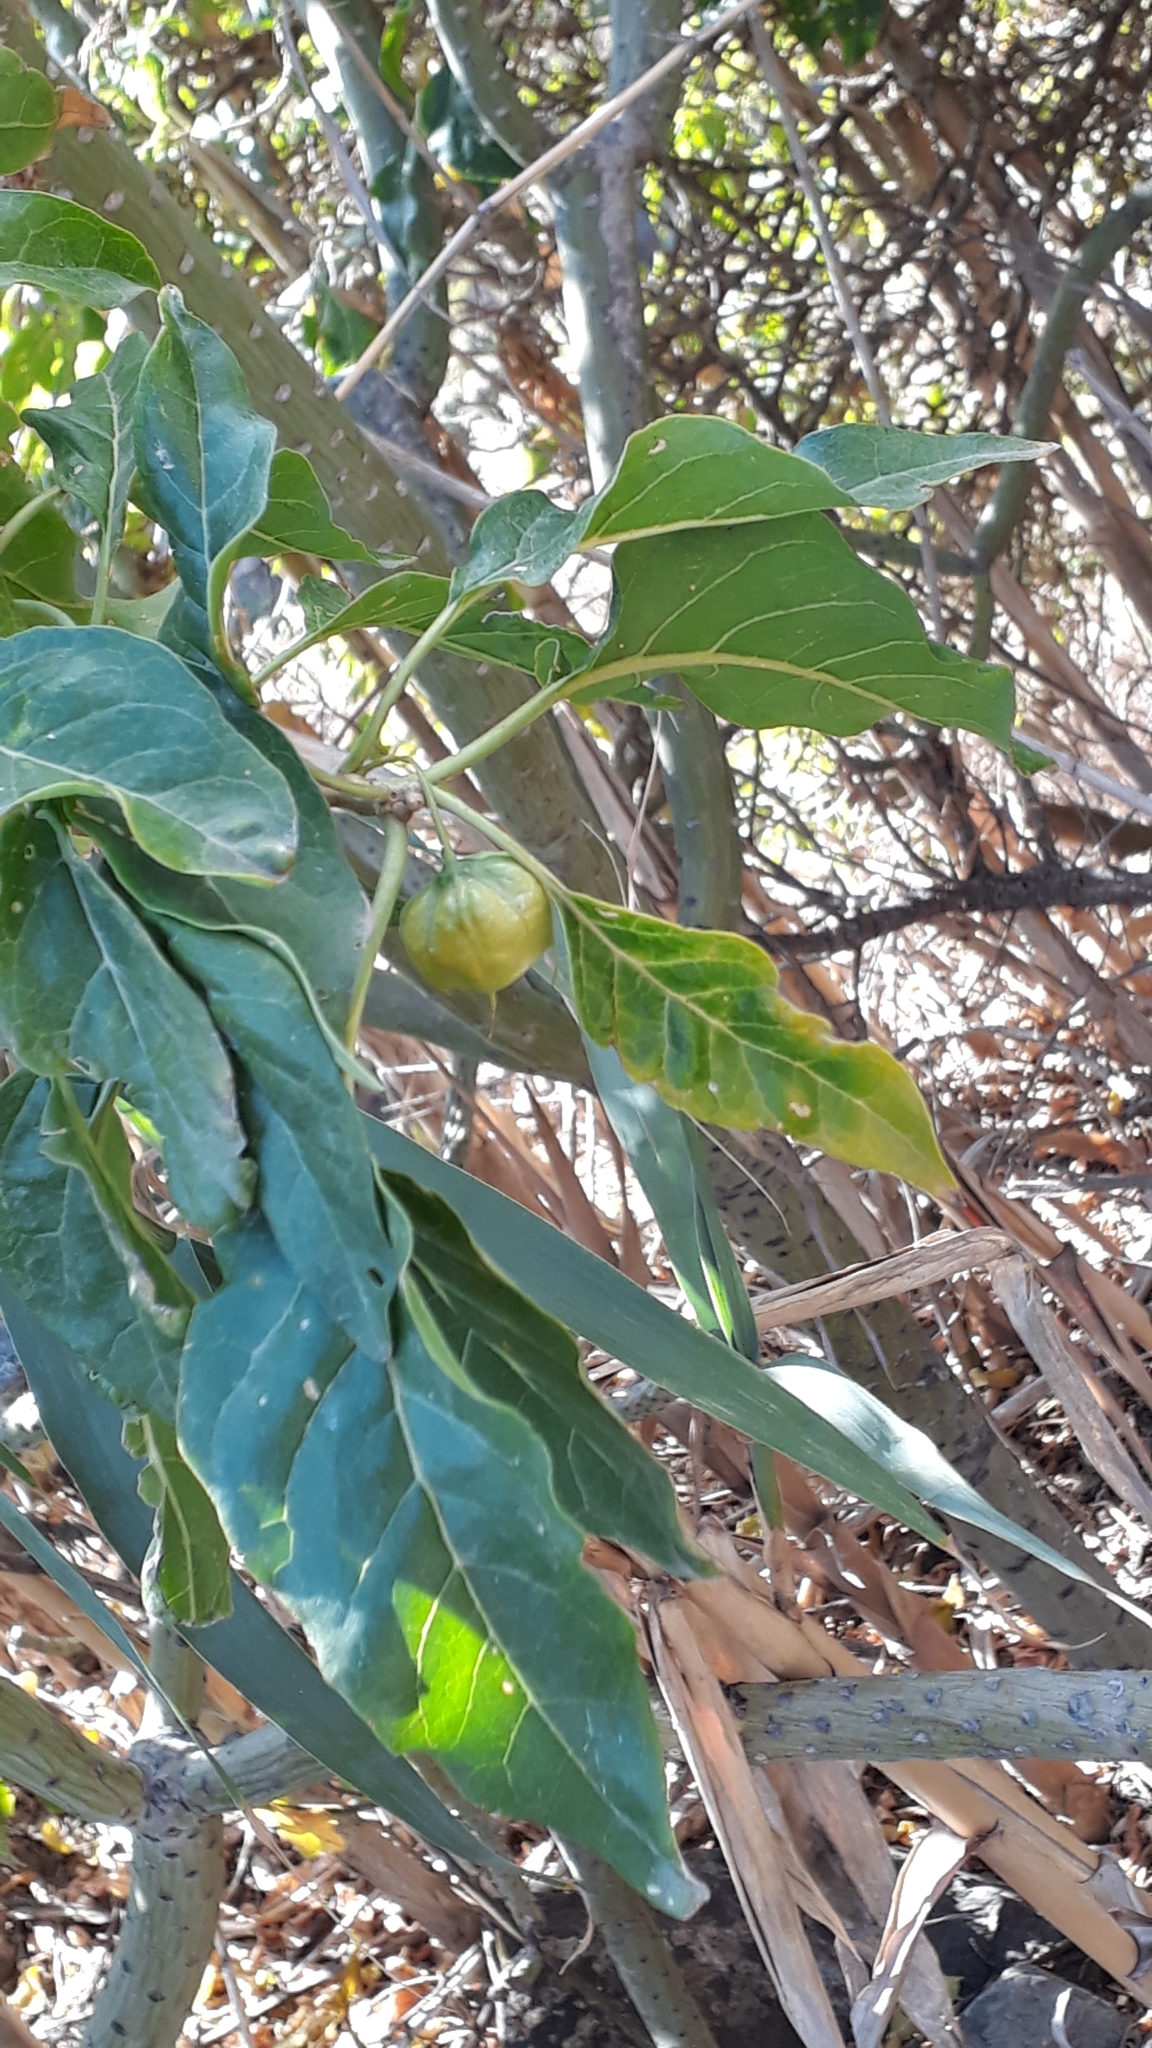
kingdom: Plantae
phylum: Tracheophyta
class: Magnoliopsida
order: Solanales
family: Solanaceae
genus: Withania
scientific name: Withania aristata
